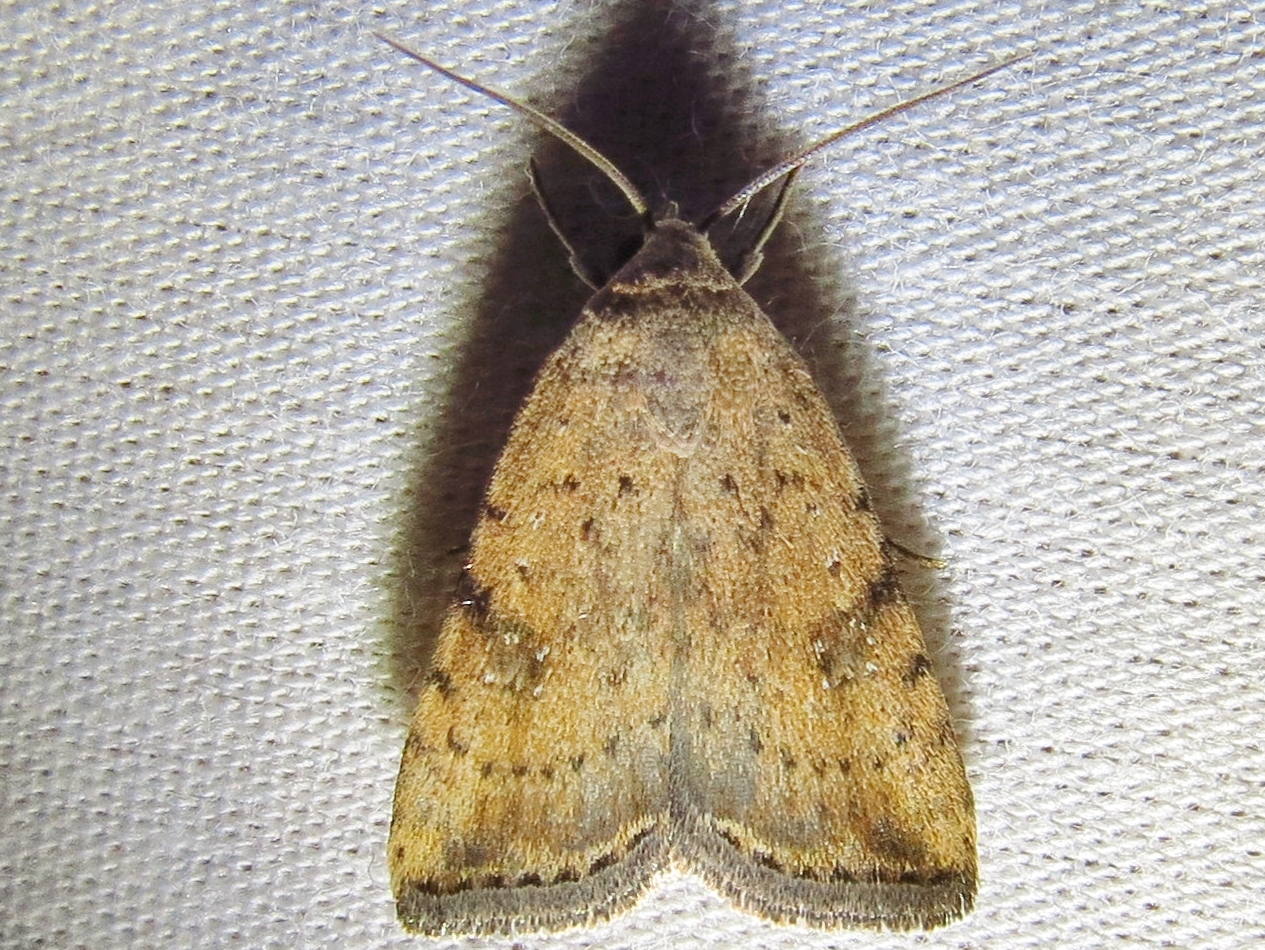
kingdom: Animalia
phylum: Arthropoda
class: Insecta
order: Lepidoptera
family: Noctuidae
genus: Micrathetis
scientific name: Micrathetis triplex
